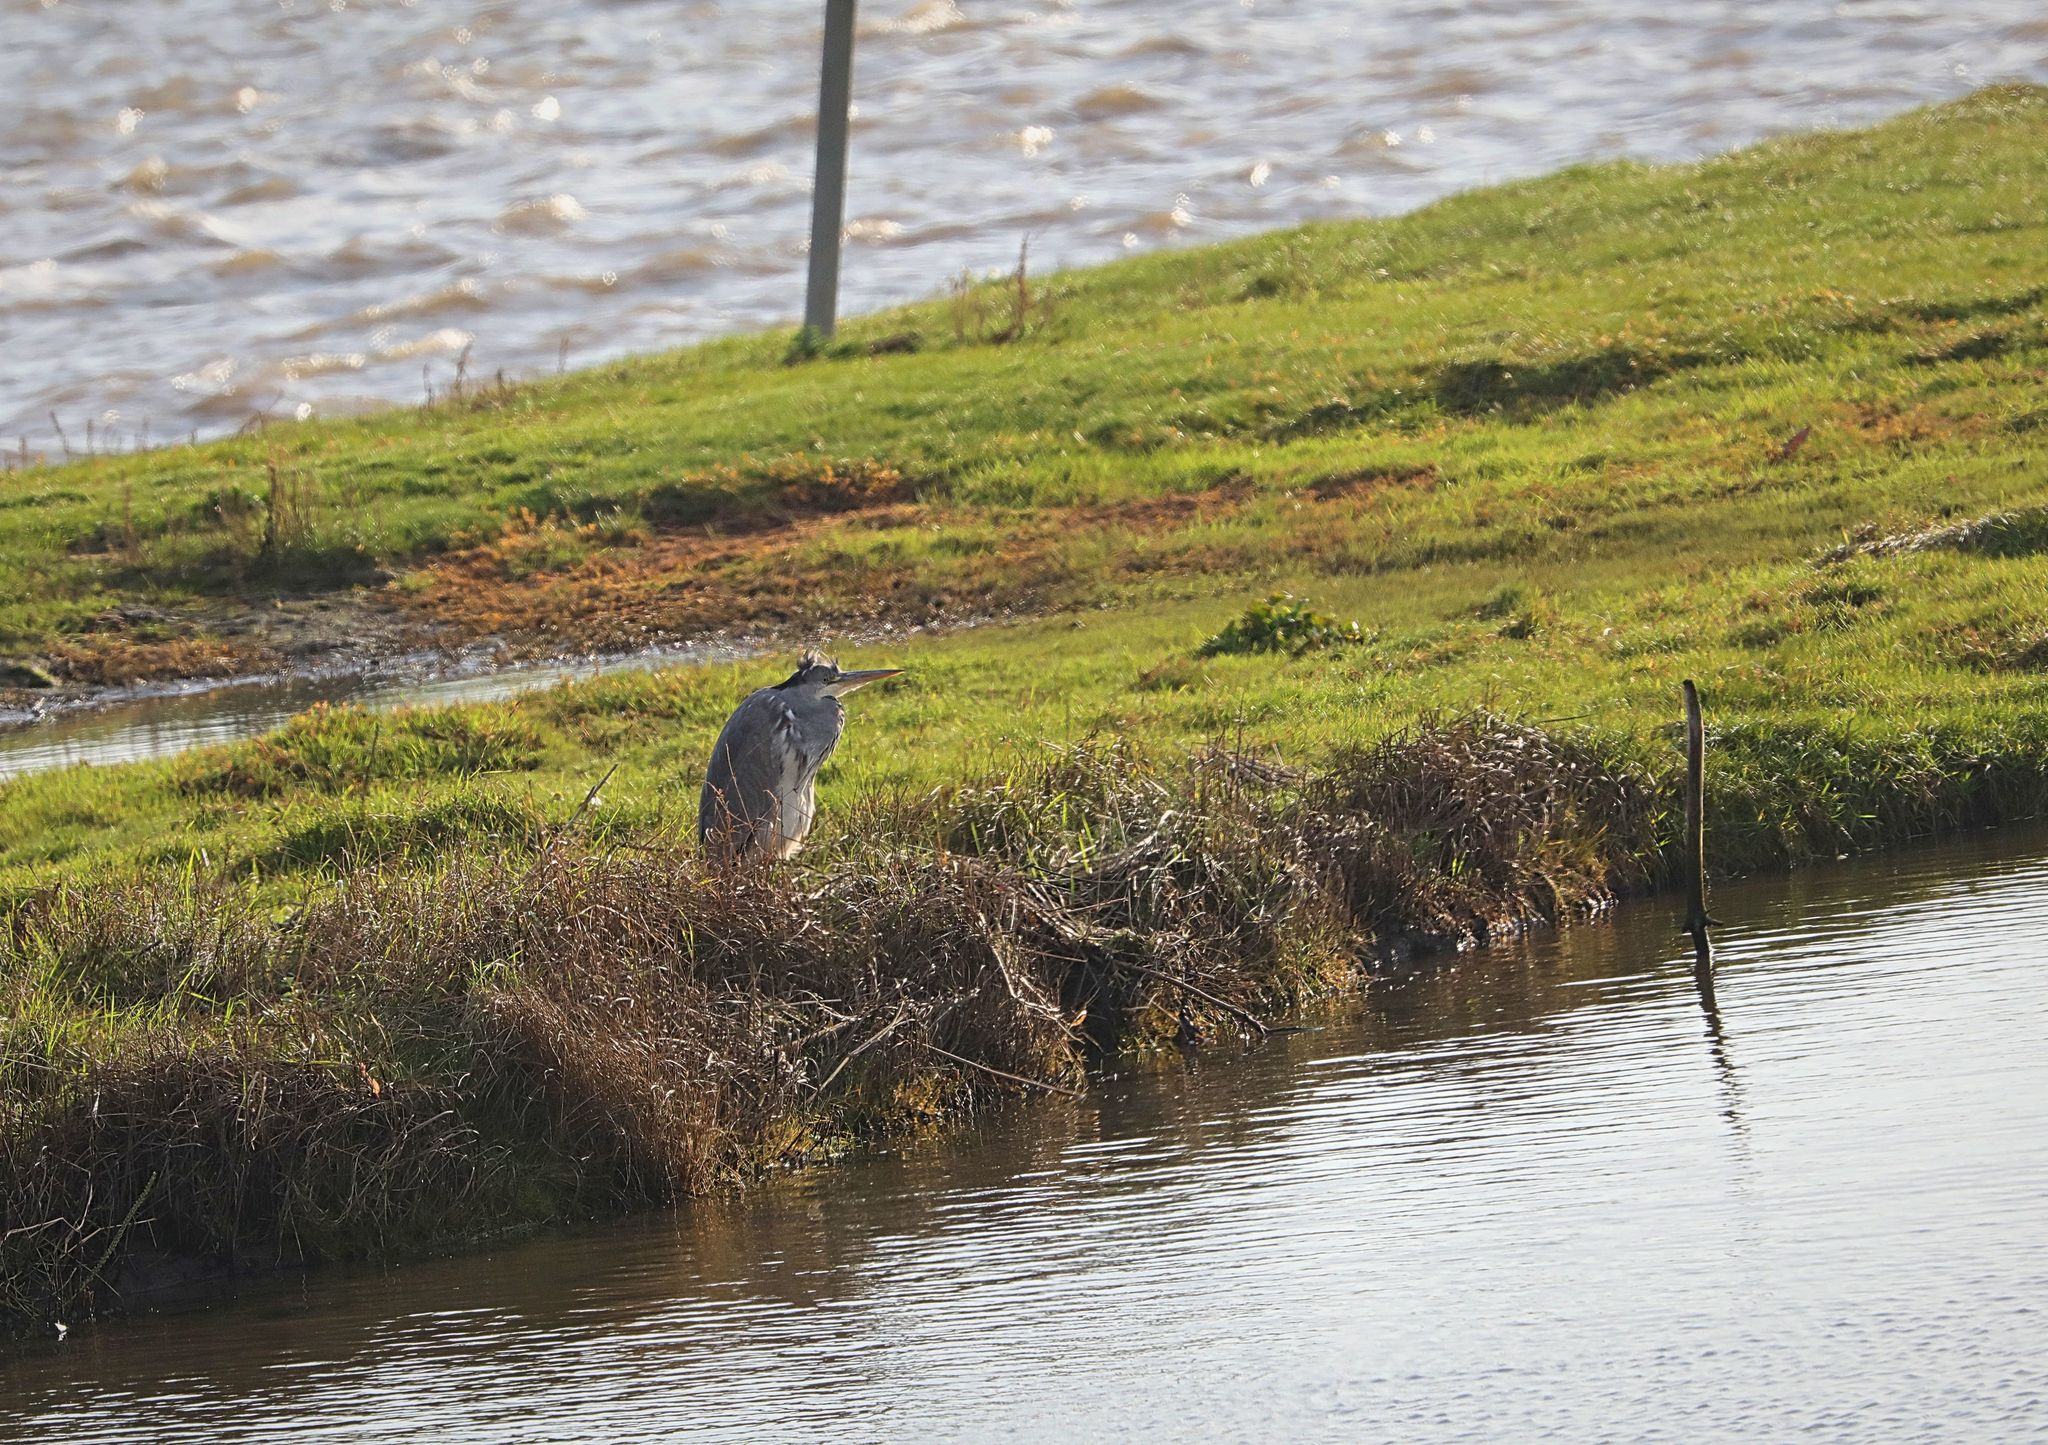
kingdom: Animalia
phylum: Chordata
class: Aves
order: Pelecaniformes
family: Ardeidae
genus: Ardea
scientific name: Ardea cinerea
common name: Grey heron
